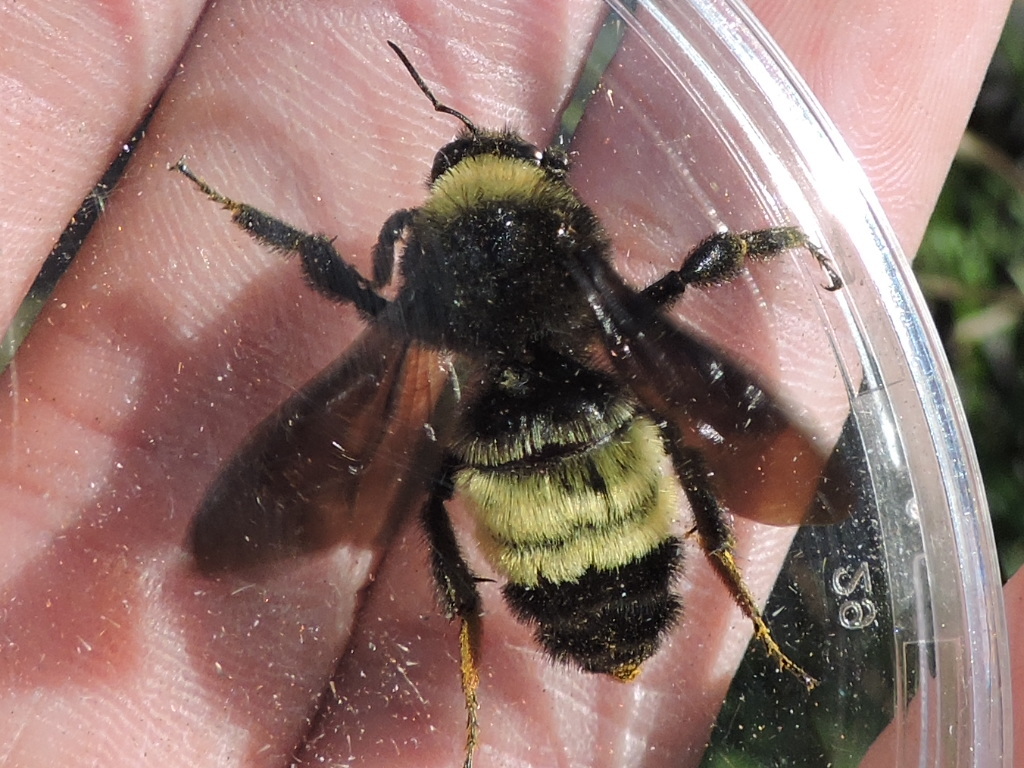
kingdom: Animalia
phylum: Arthropoda
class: Insecta
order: Hymenoptera
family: Apidae
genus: Bombus
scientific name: Bombus pensylvanicus
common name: Bumble bee
